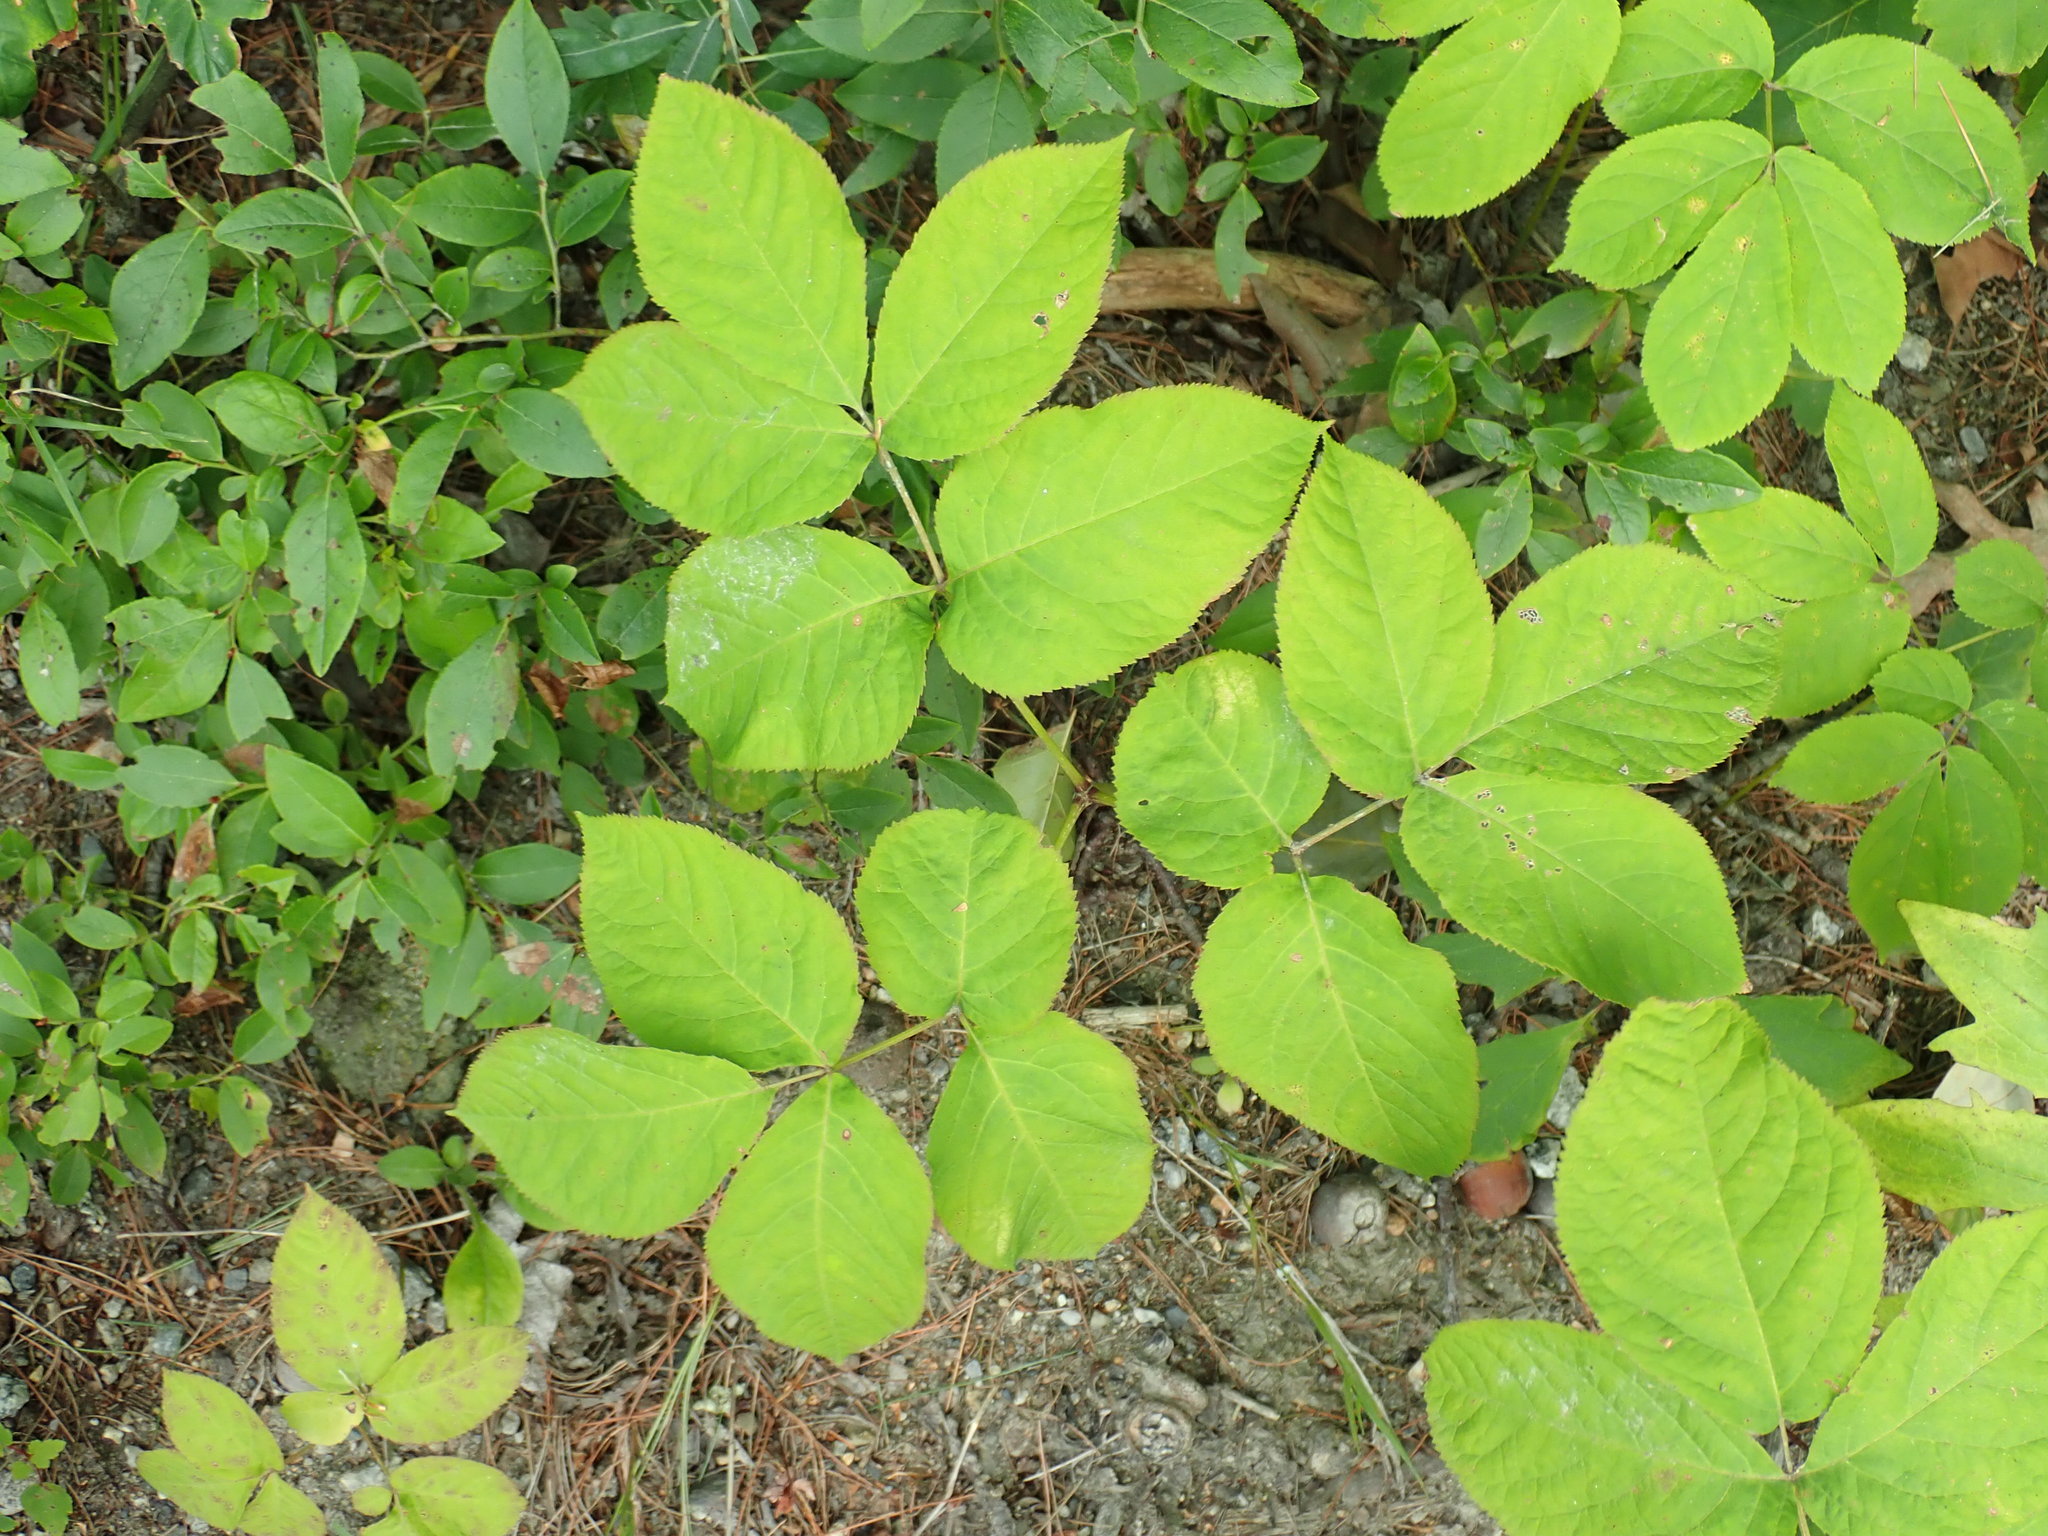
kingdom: Plantae
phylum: Tracheophyta
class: Magnoliopsida
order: Apiales
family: Araliaceae
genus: Aralia
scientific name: Aralia nudicaulis
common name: Wild sarsaparilla
